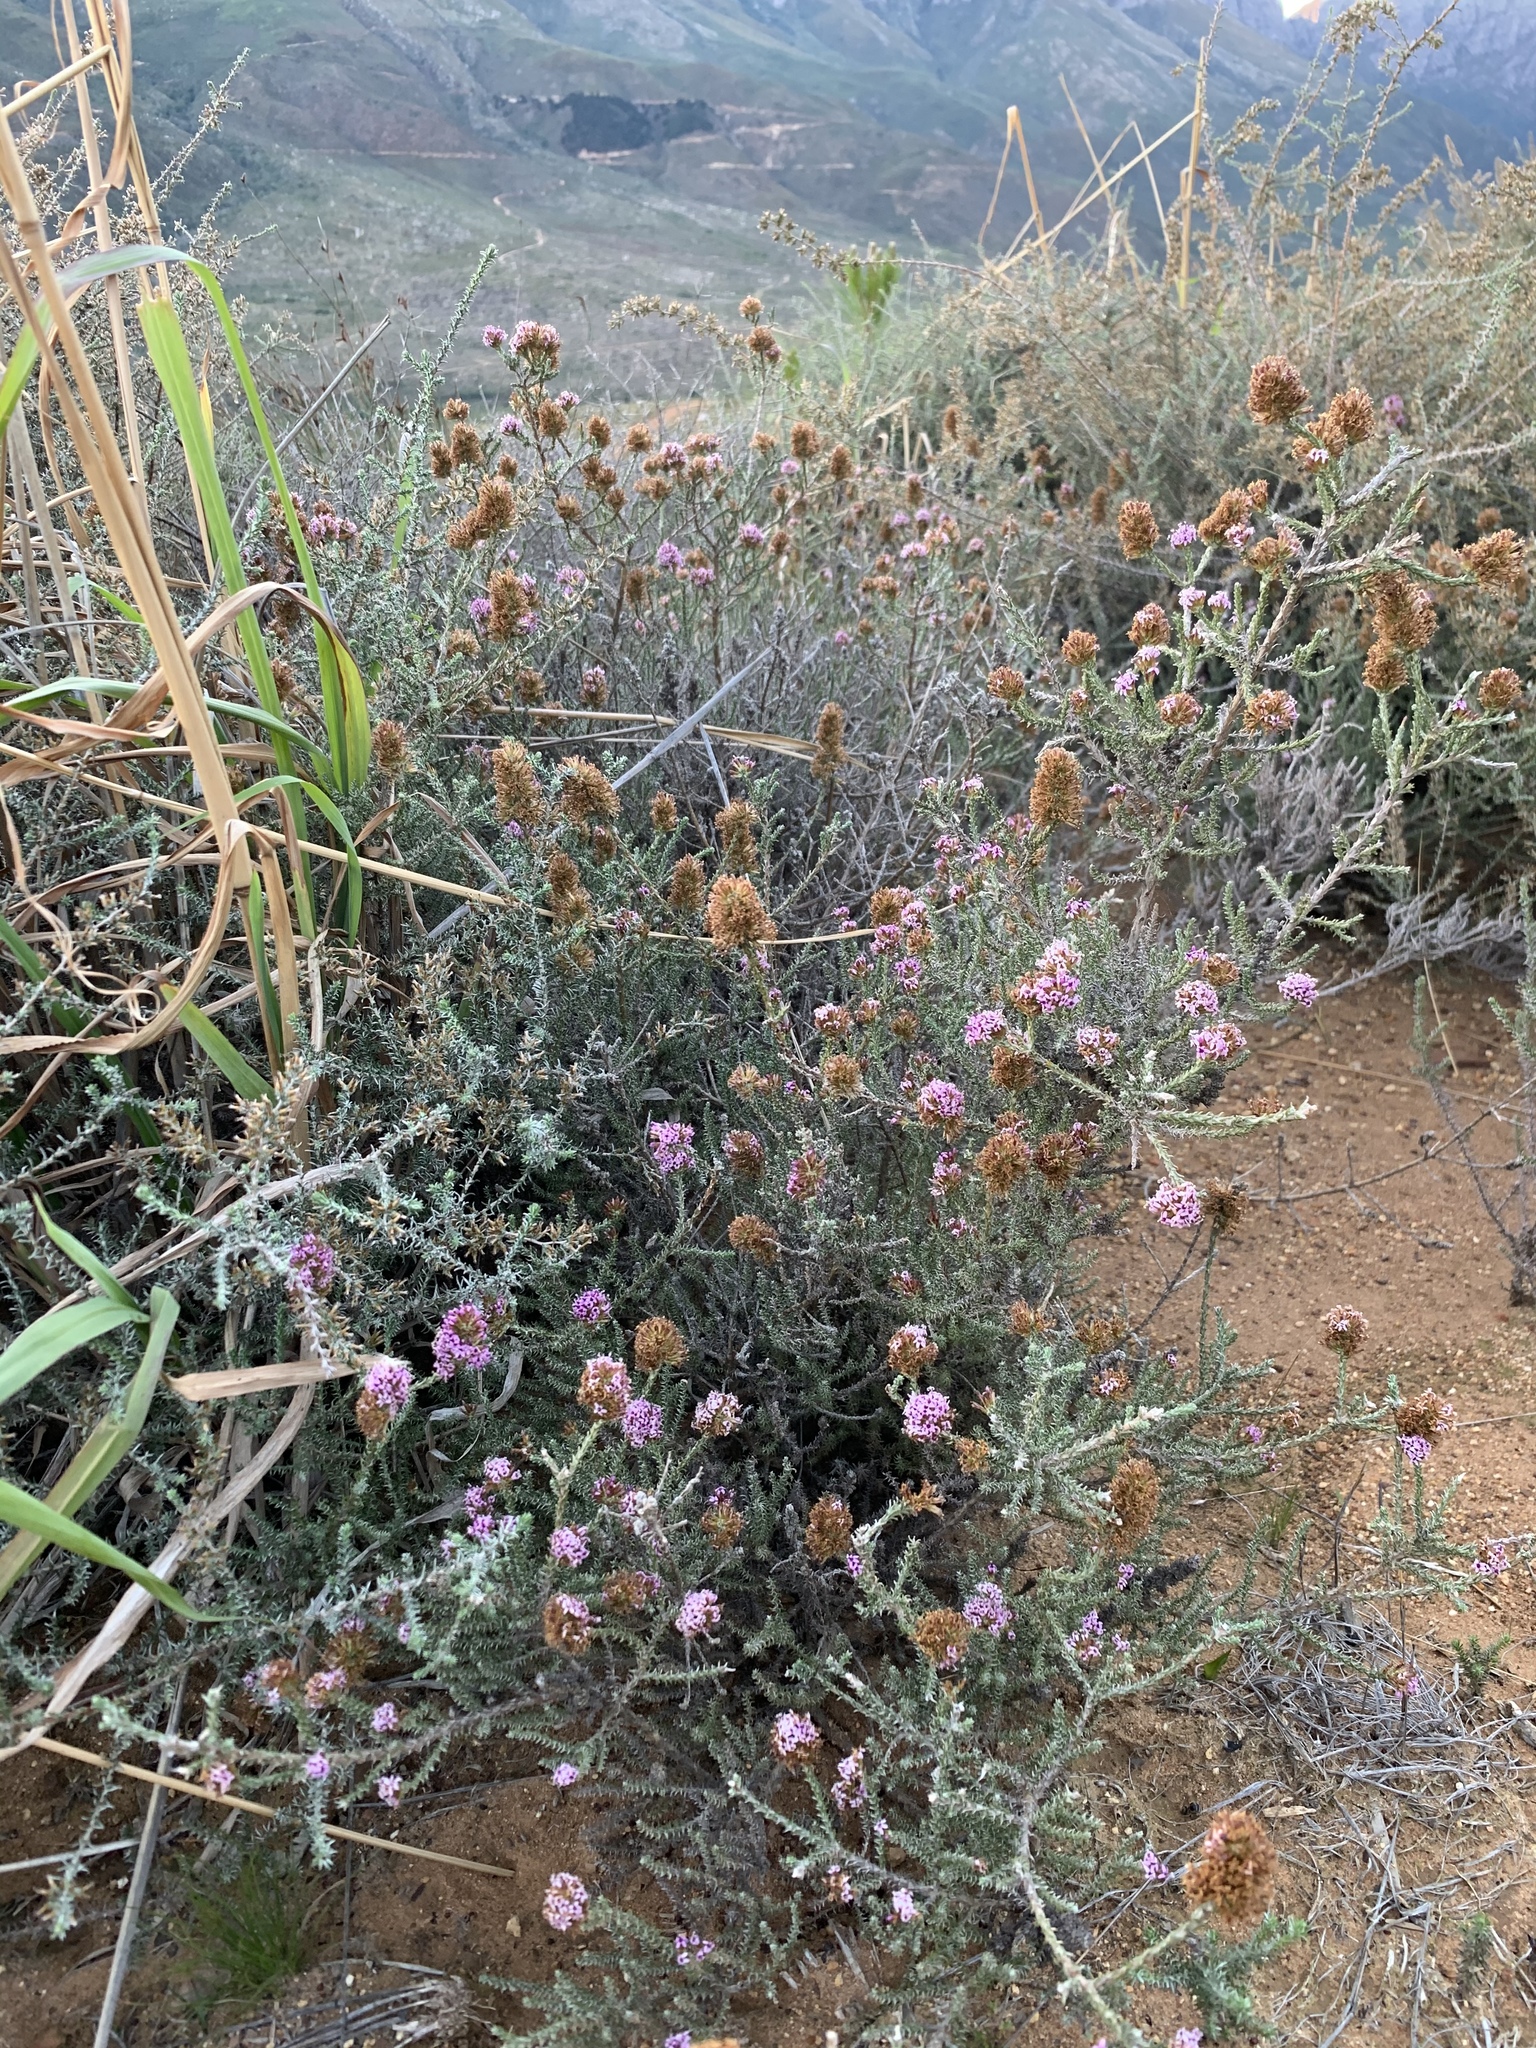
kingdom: Plantae
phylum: Tracheophyta
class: Magnoliopsida
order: Asterales
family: Asteraceae
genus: Stoebe
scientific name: Stoebe fusca
